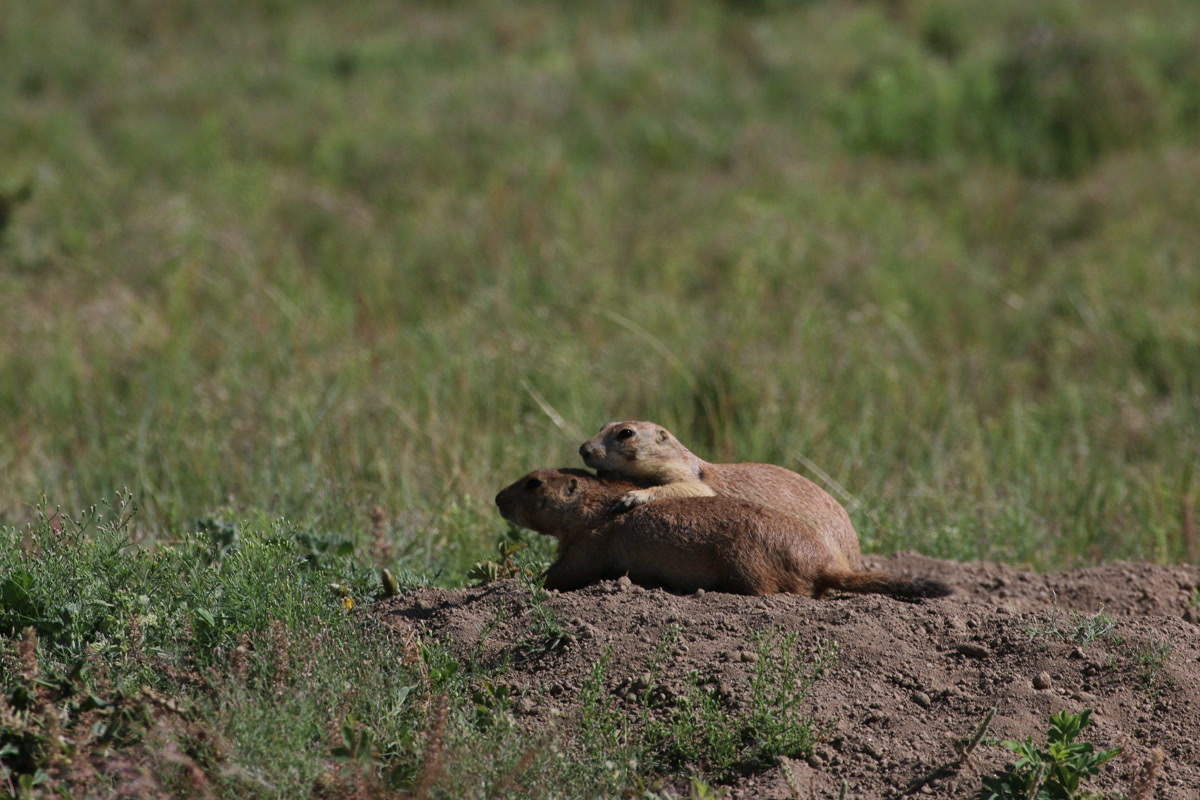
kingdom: Animalia
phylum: Chordata
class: Mammalia
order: Rodentia
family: Sciuridae
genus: Cynomys
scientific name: Cynomys ludovicianus
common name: Black-tailed prairie dog
